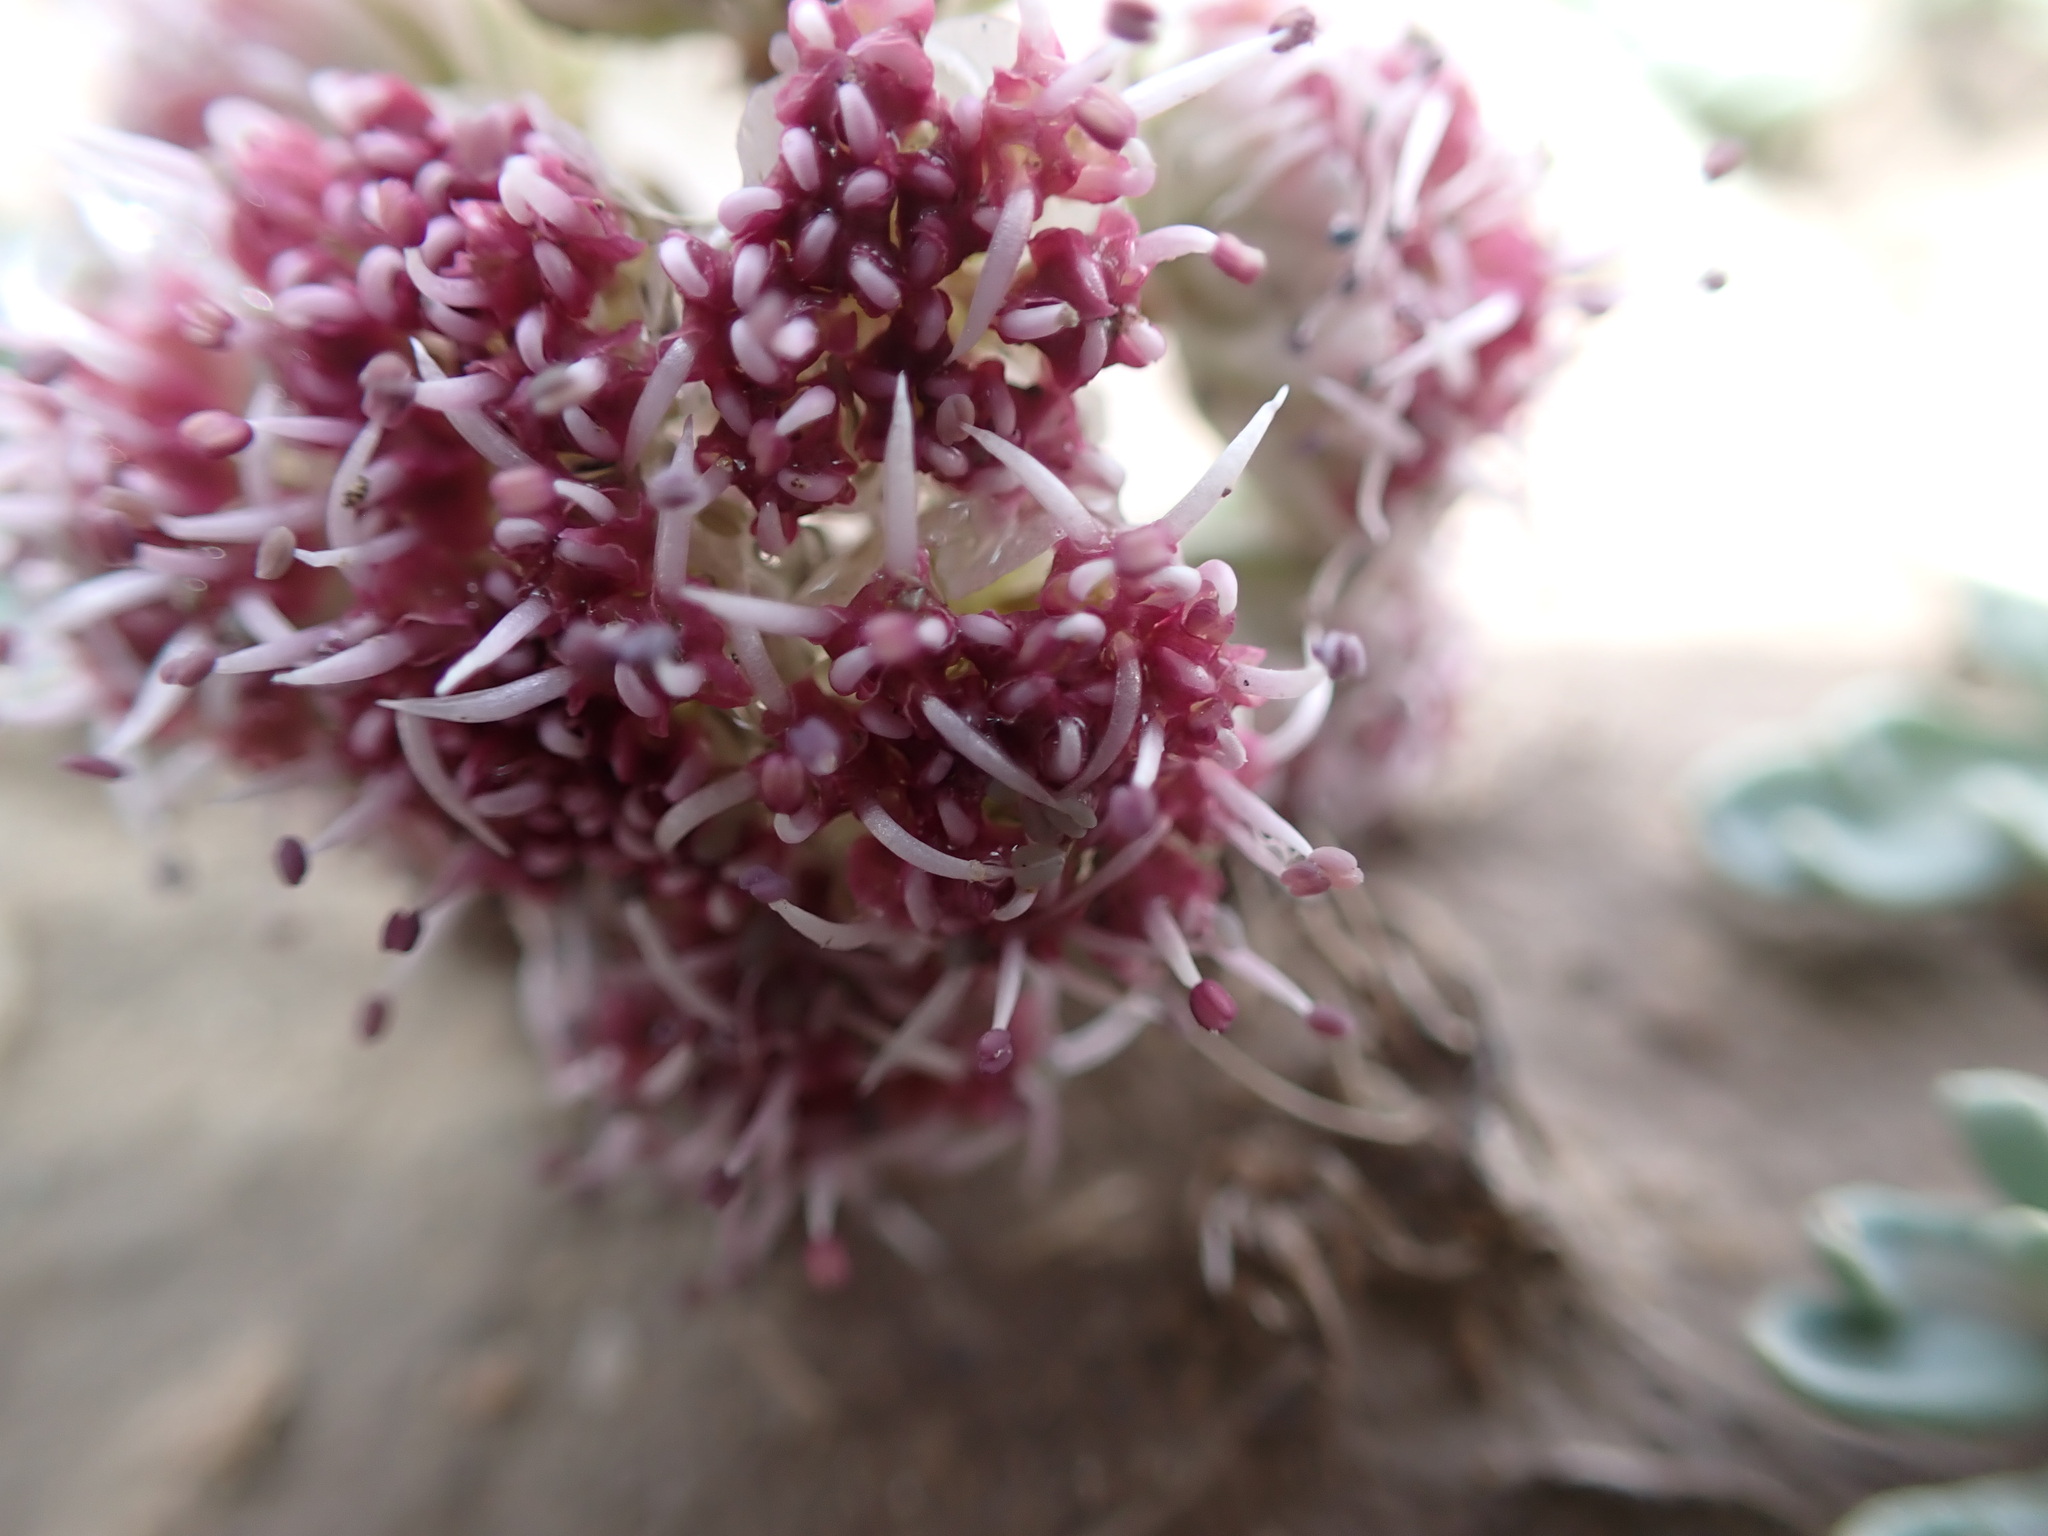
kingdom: Plantae
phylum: Tracheophyta
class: Magnoliopsida
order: Apiales
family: Apiaceae
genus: Vesper
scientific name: Vesper bulbosus
